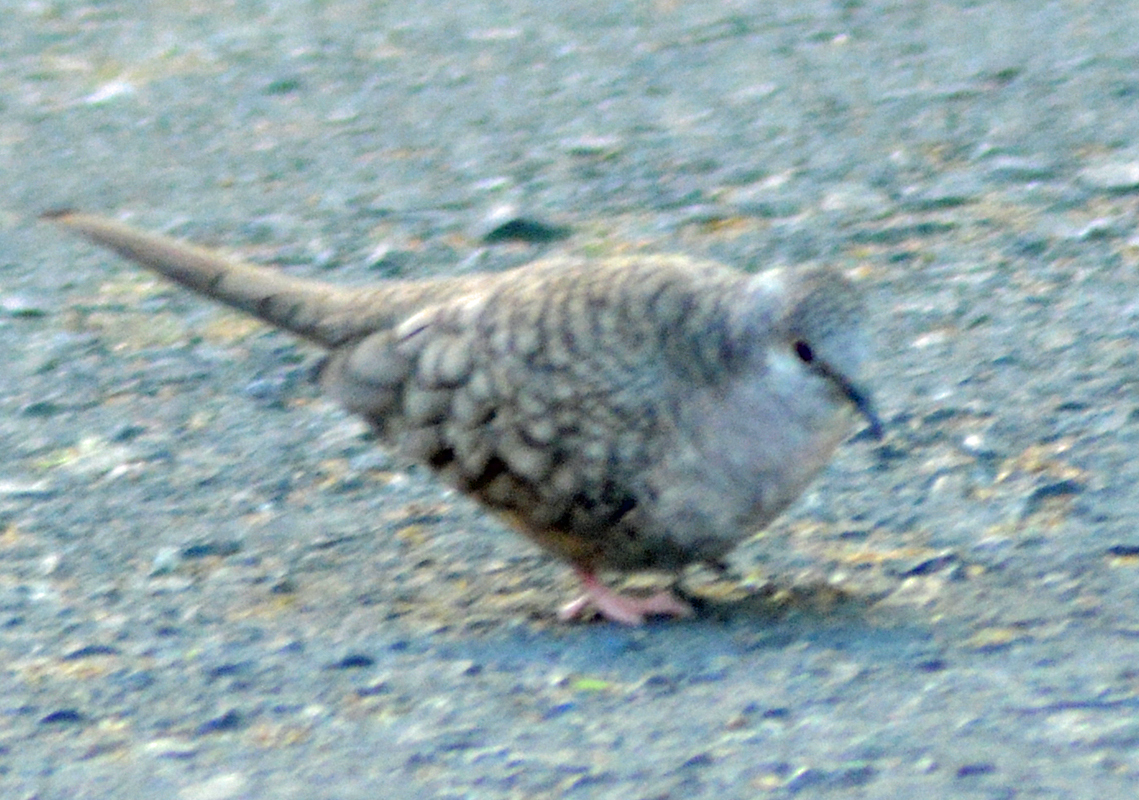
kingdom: Animalia
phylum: Chordata
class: Aves
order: Columbiformes
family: Columbidae
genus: Columbina
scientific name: Columbina inca
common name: Inca dove
